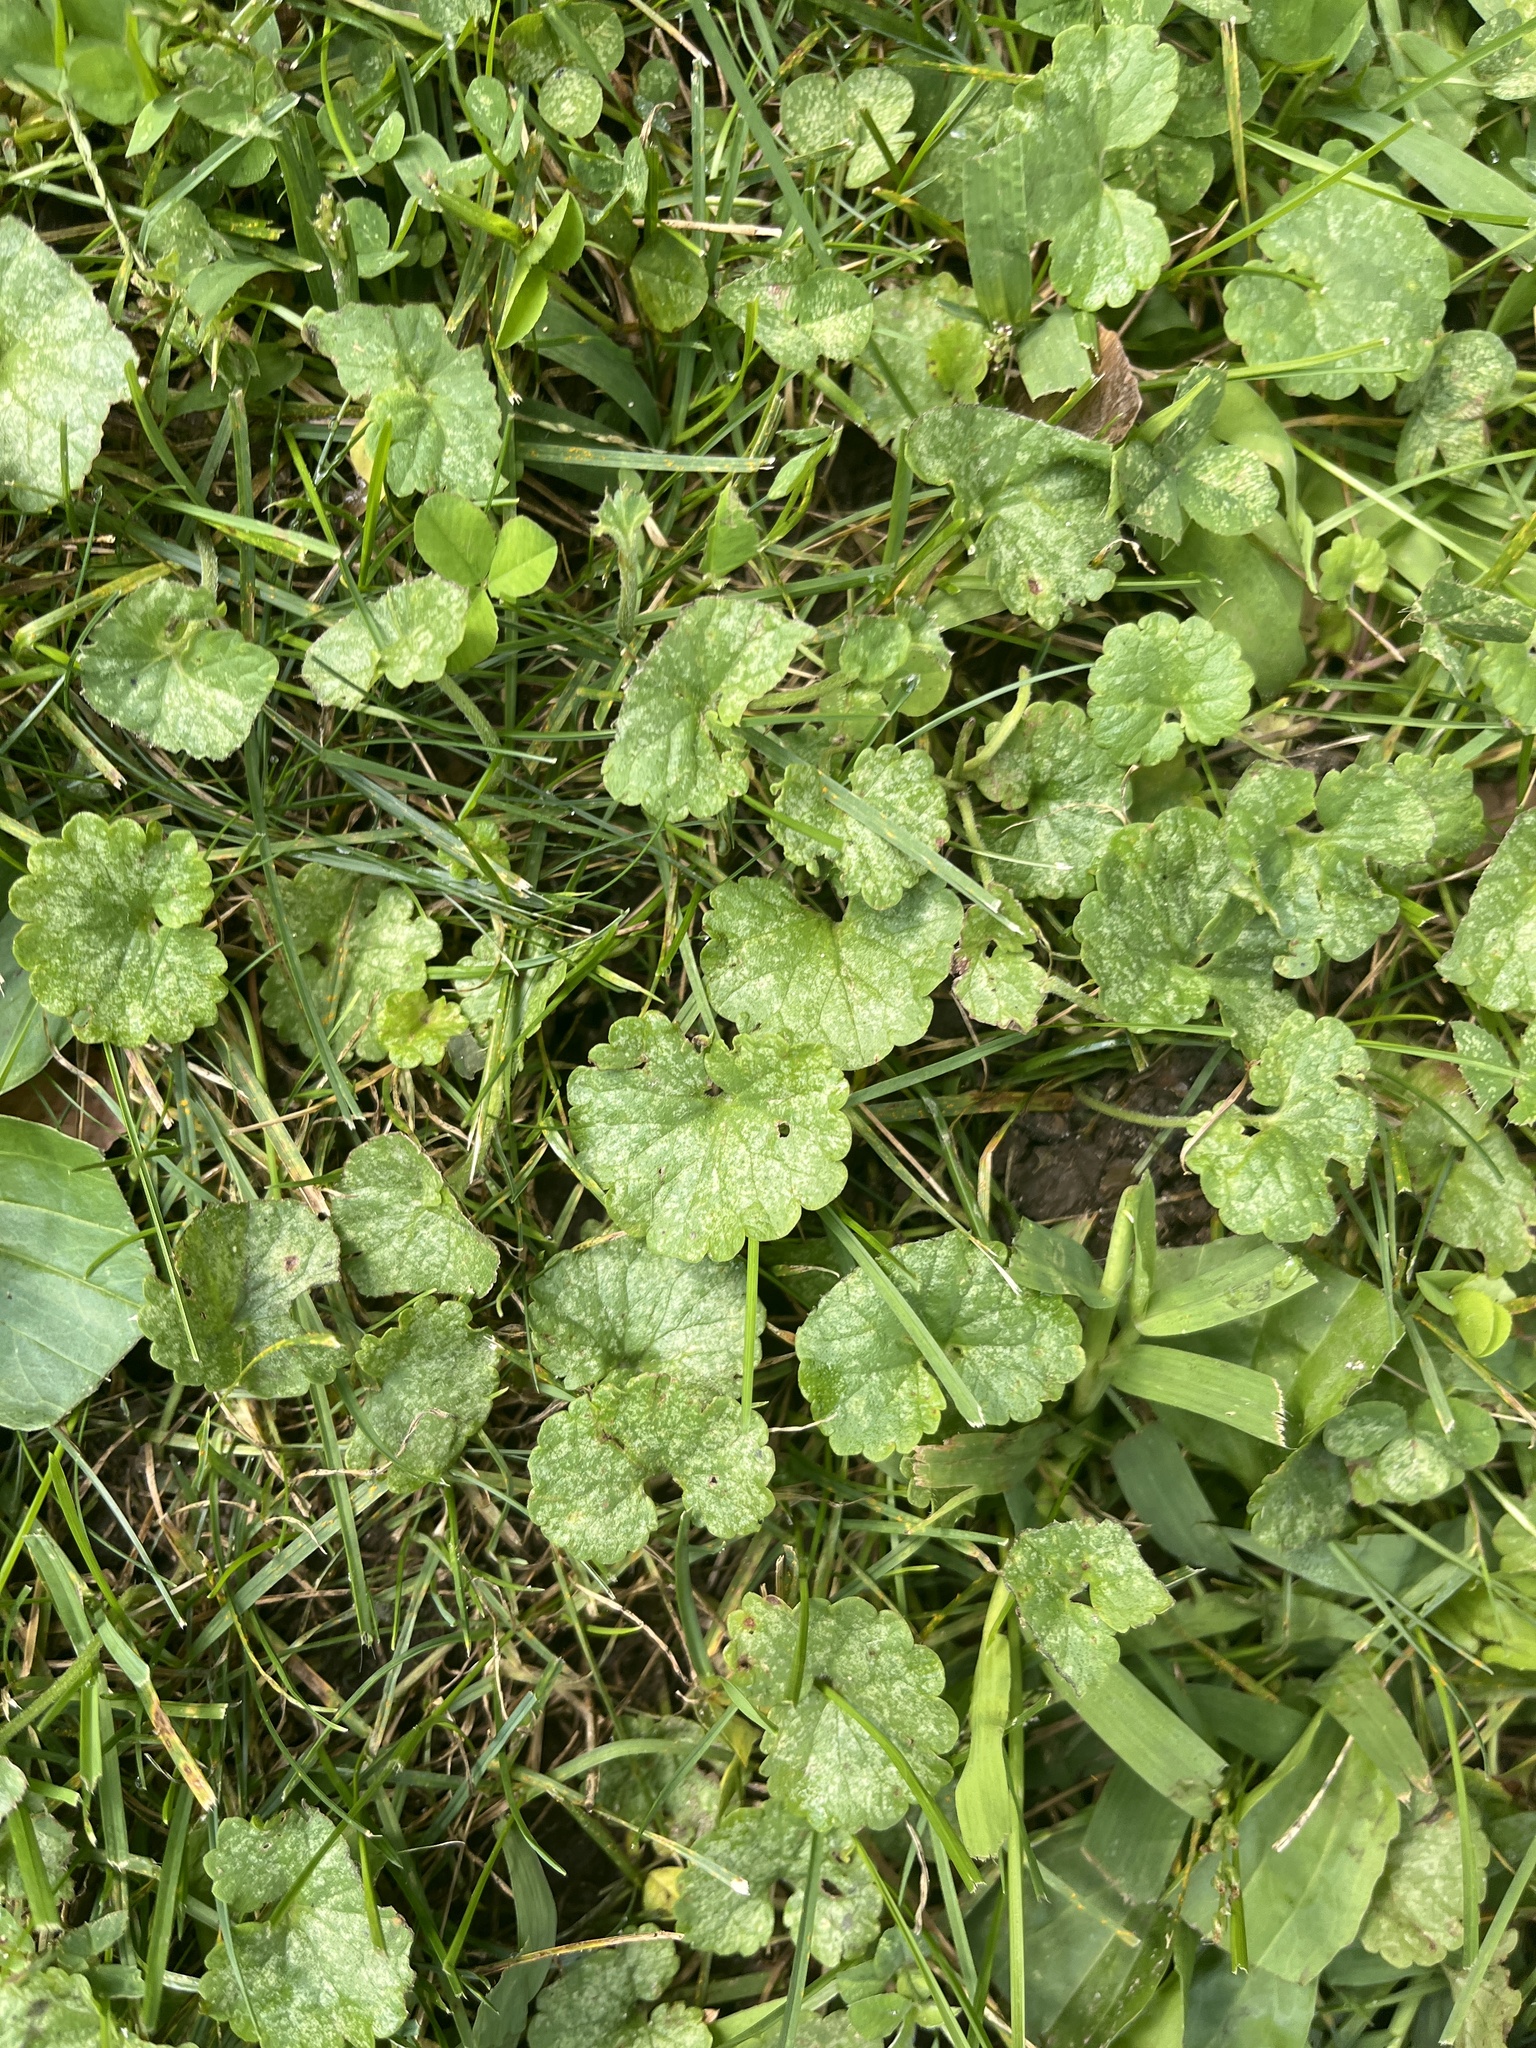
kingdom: Plantae
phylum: Tracheophyta
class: Magnoliopsida
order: Lamiales
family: Lamiaceae
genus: Glechoma
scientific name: Glechoma hederacea
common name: Ground ivy
